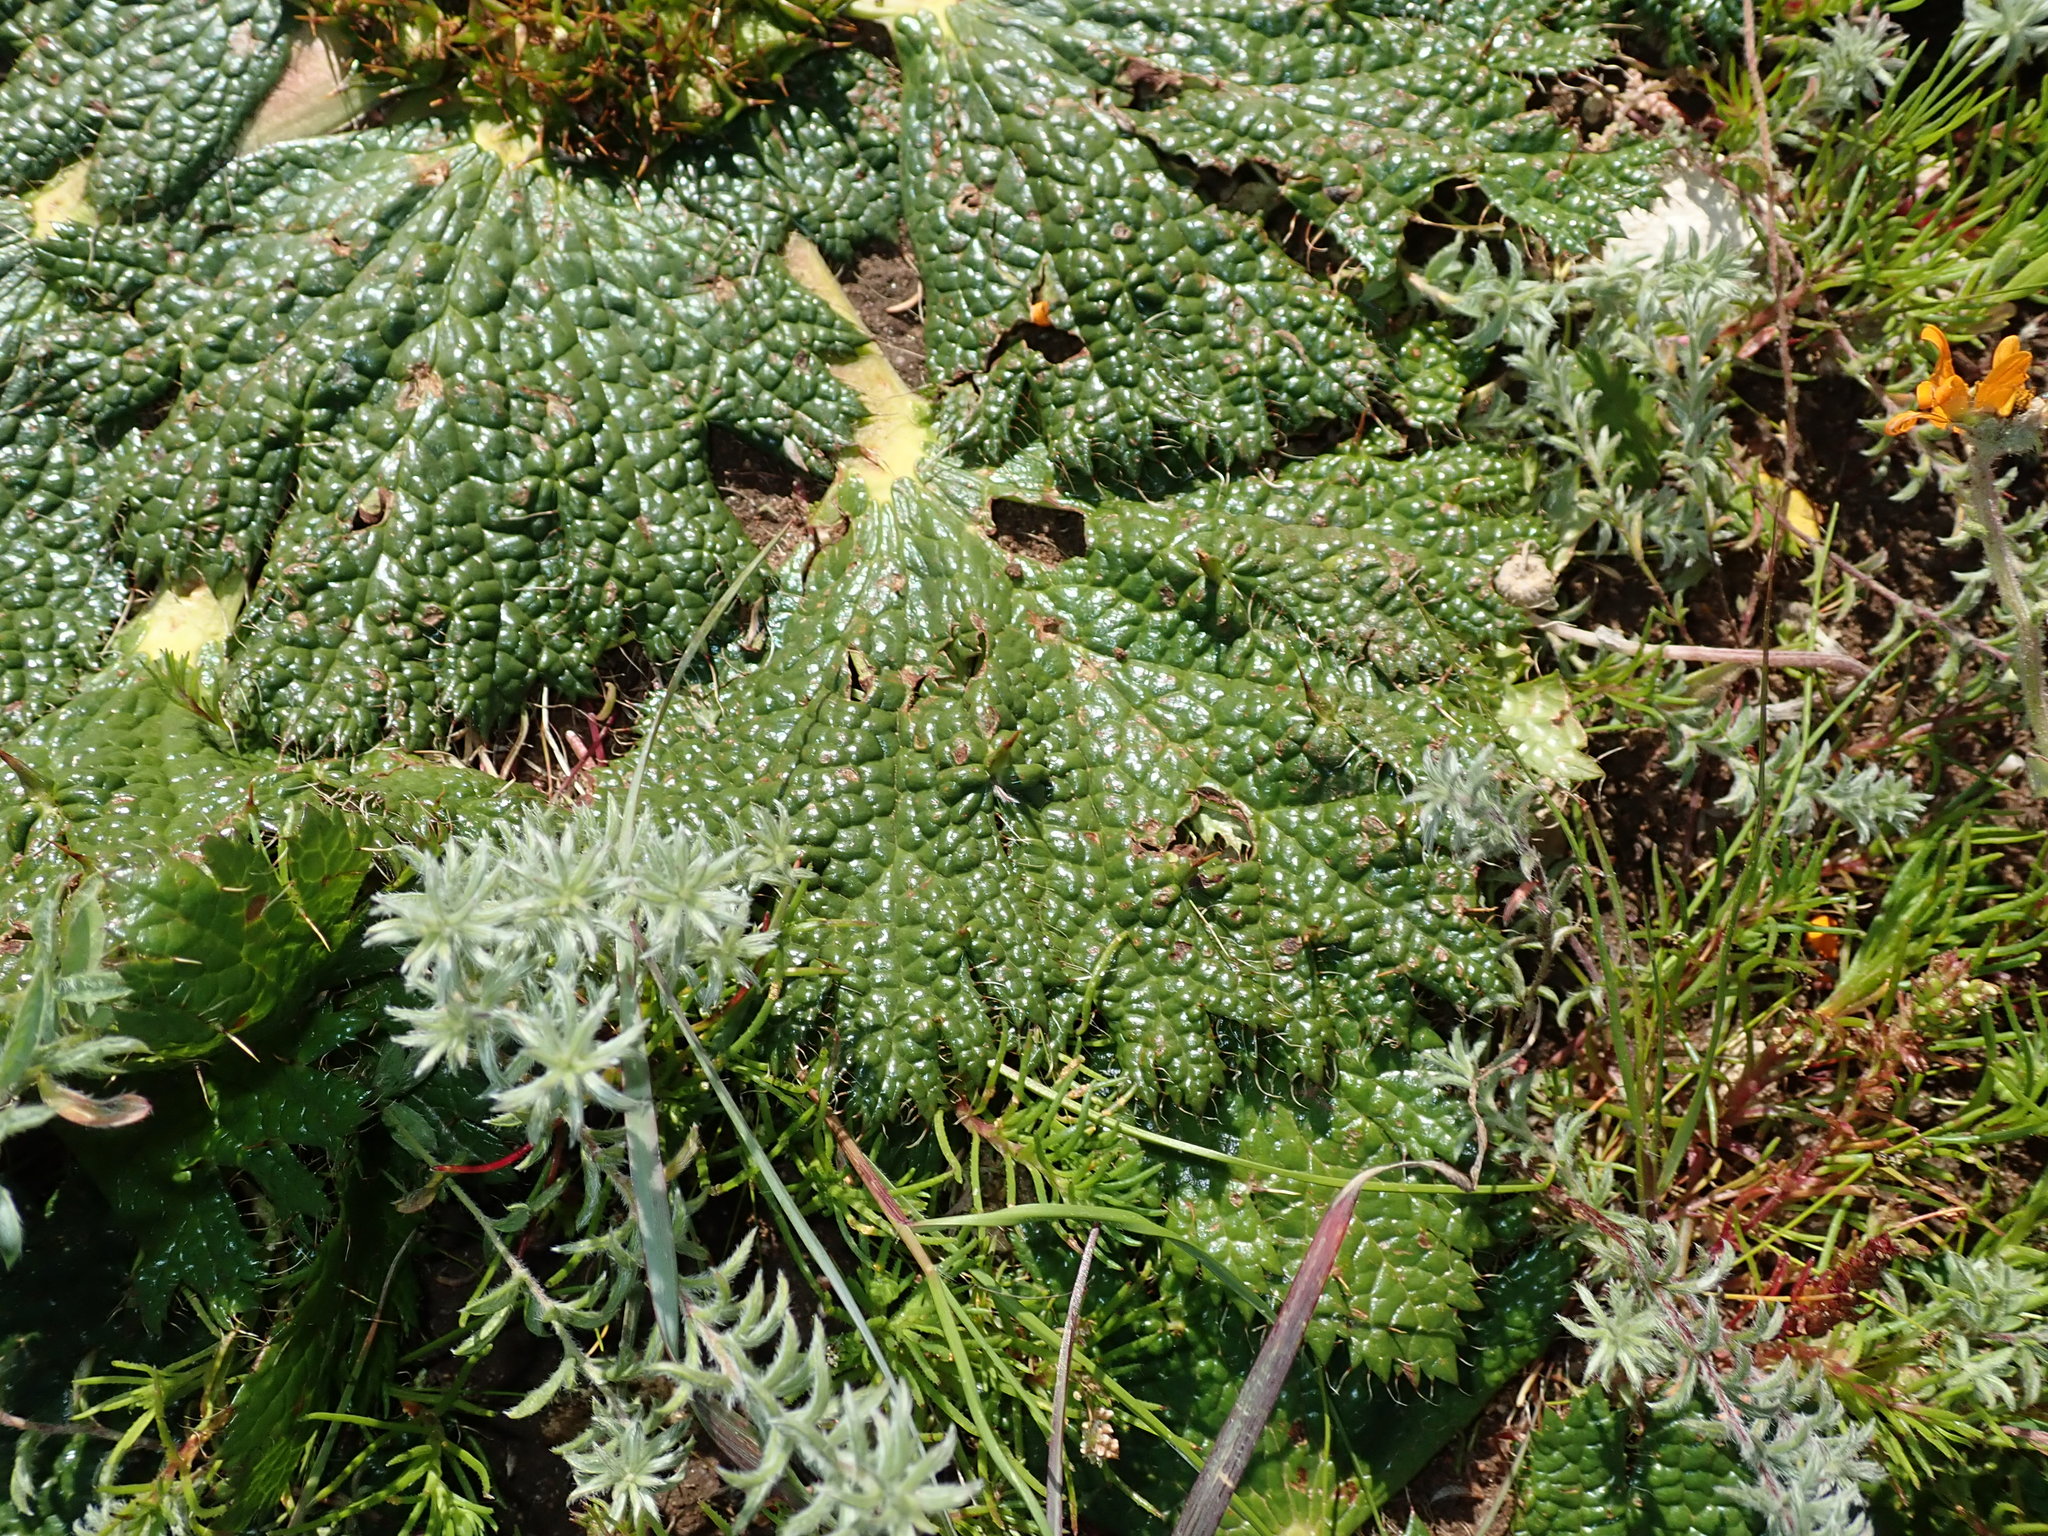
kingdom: Plantae
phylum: Tracheophyta
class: Magnoliopsida
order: Apiales
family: Apiaceae
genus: Arctopus
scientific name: Arctopus echinatus
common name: Platdoring
